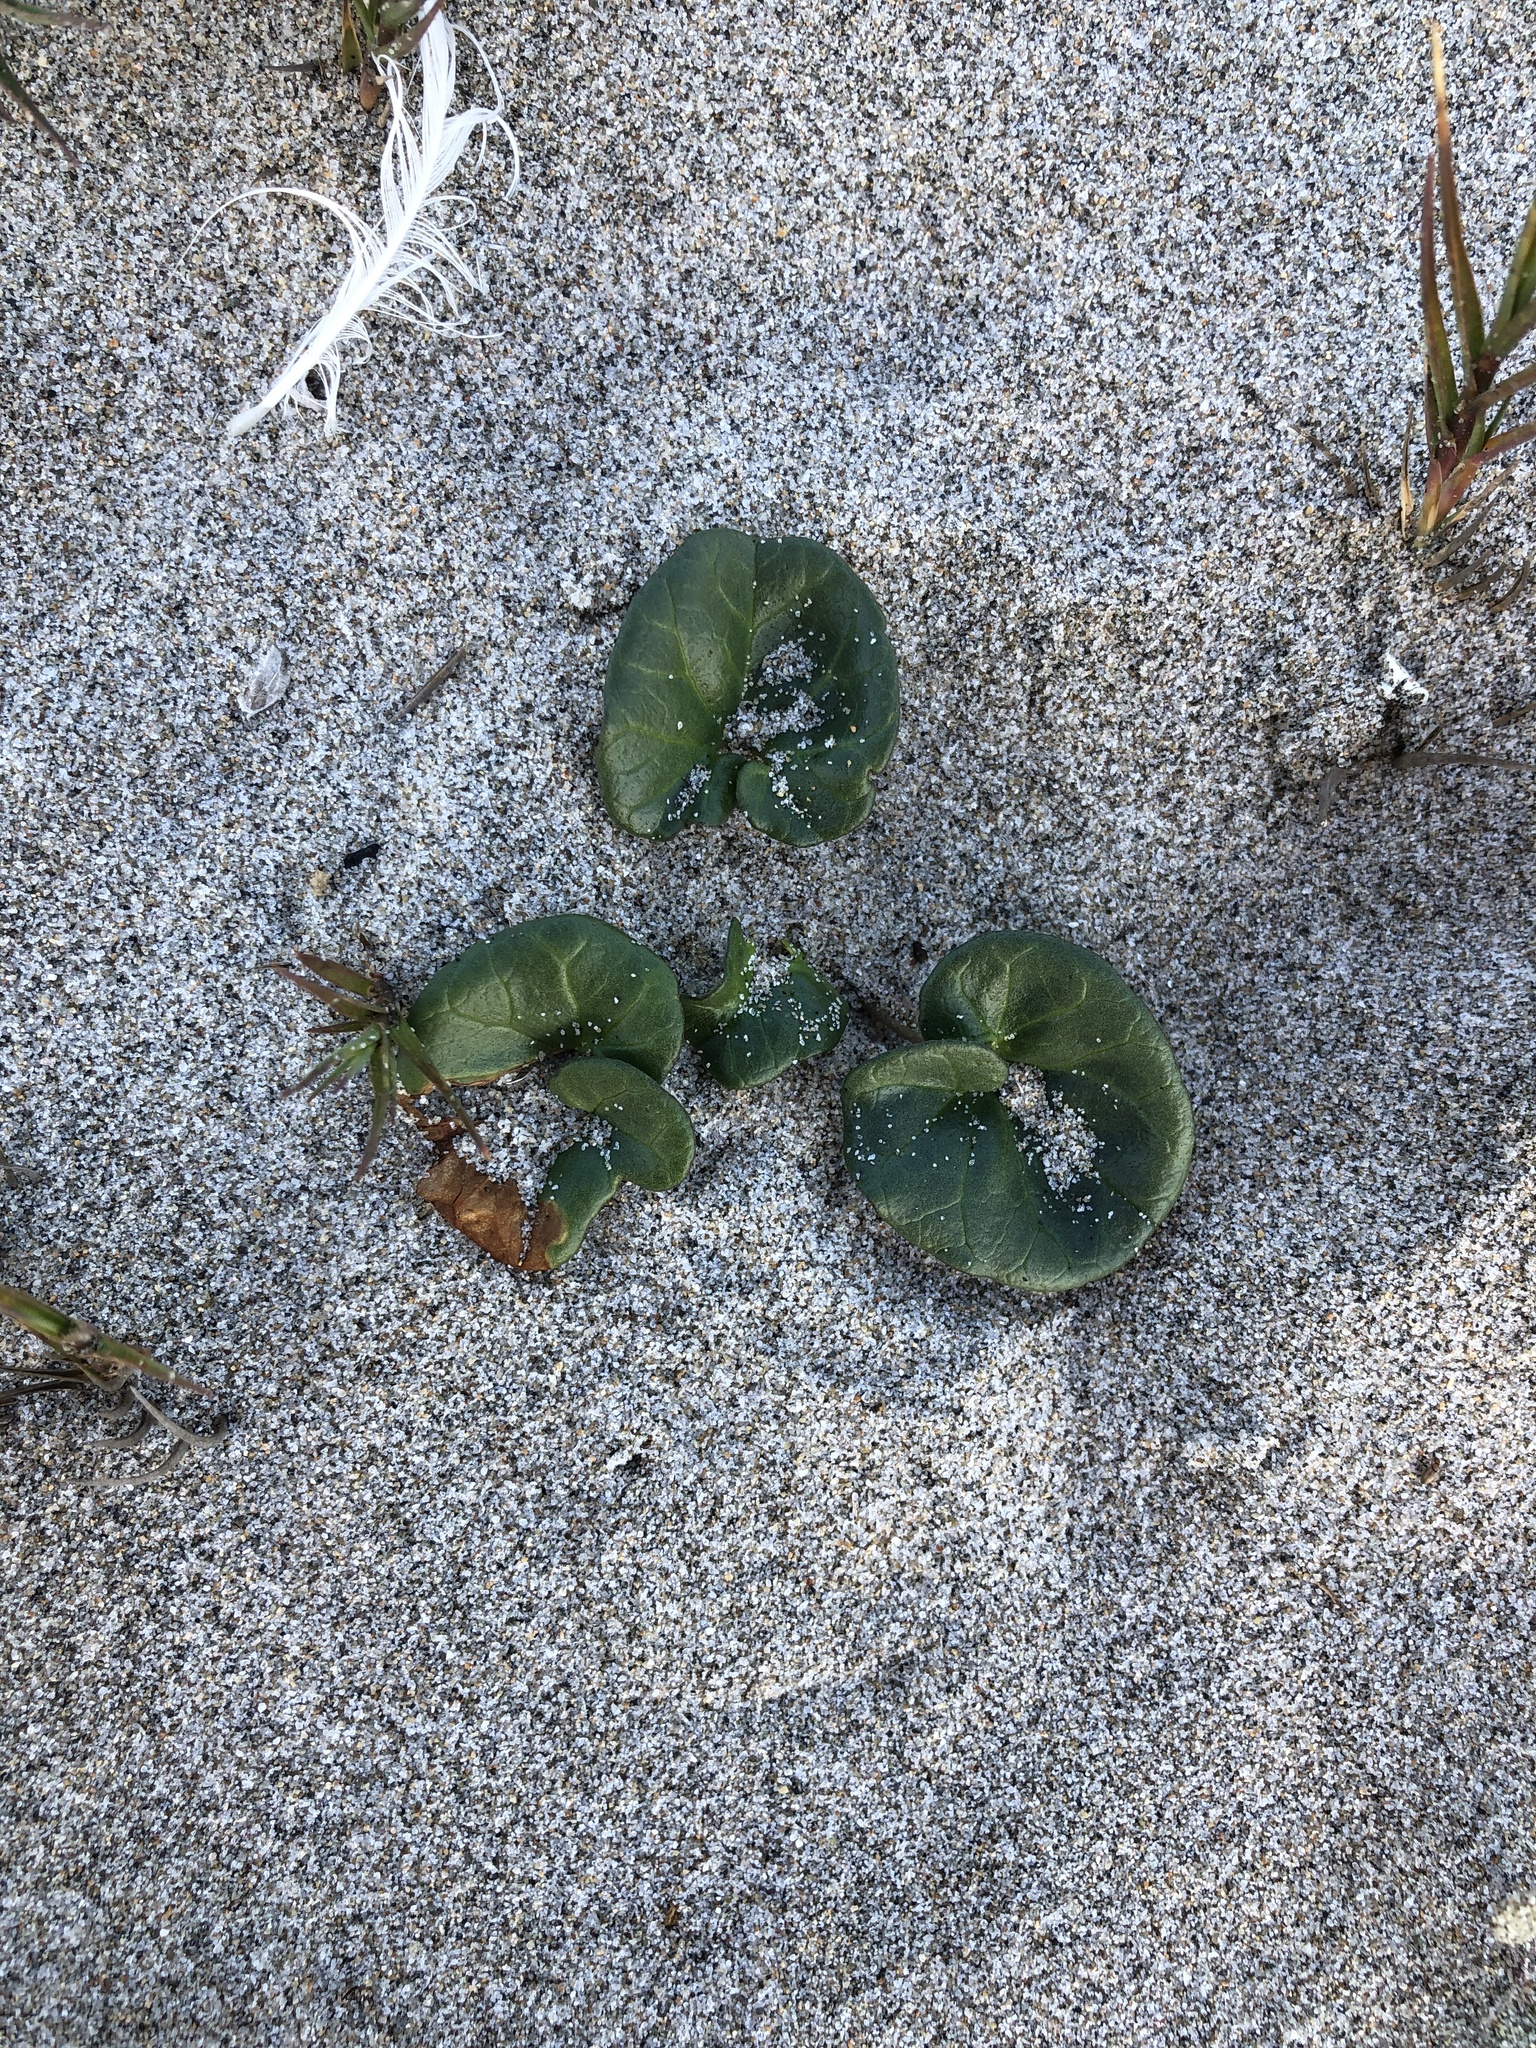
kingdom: Plantae
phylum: Tracheophyta
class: Magnoliopsida
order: Solanales
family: Convolvulaceae
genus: Calystegia
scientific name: Calystegia soldanella
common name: Sea bindweed
